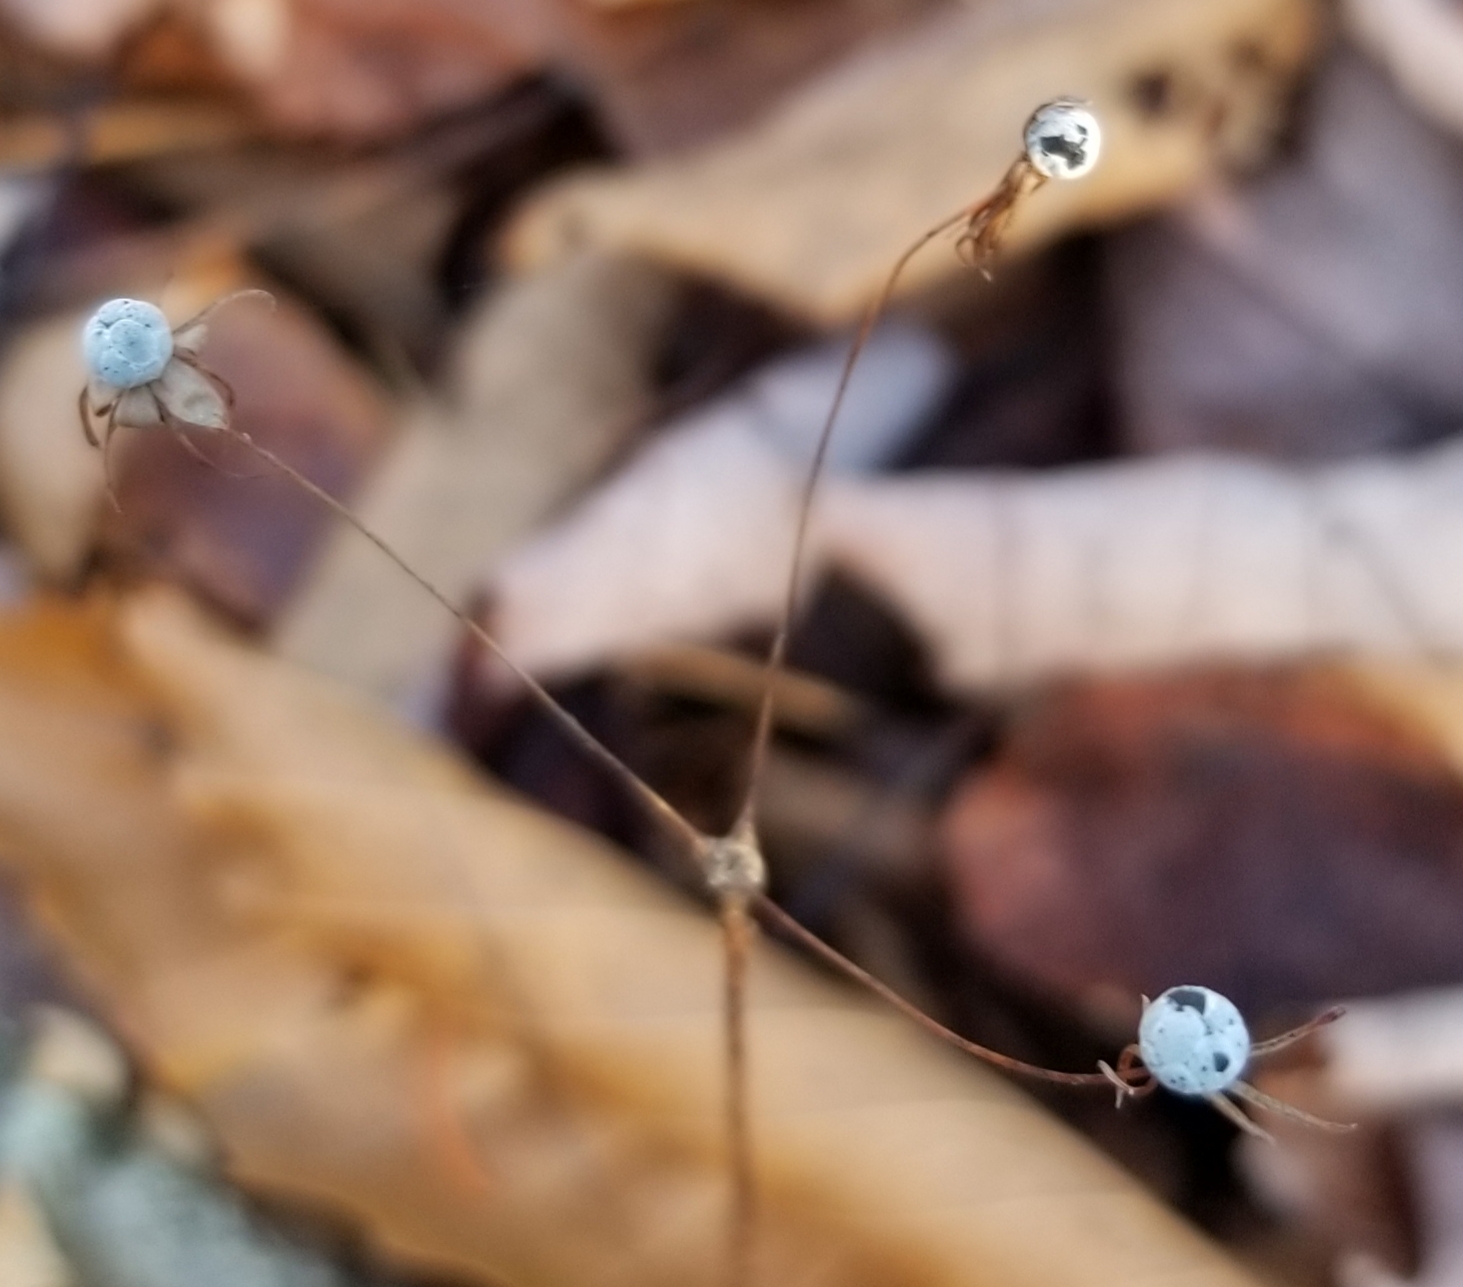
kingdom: Plantae
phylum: Tracheophyta
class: Magnoliopsida
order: Ericales
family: Primulaceae
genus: Lysimachia
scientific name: Lysimachia borealis
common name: American starflower
